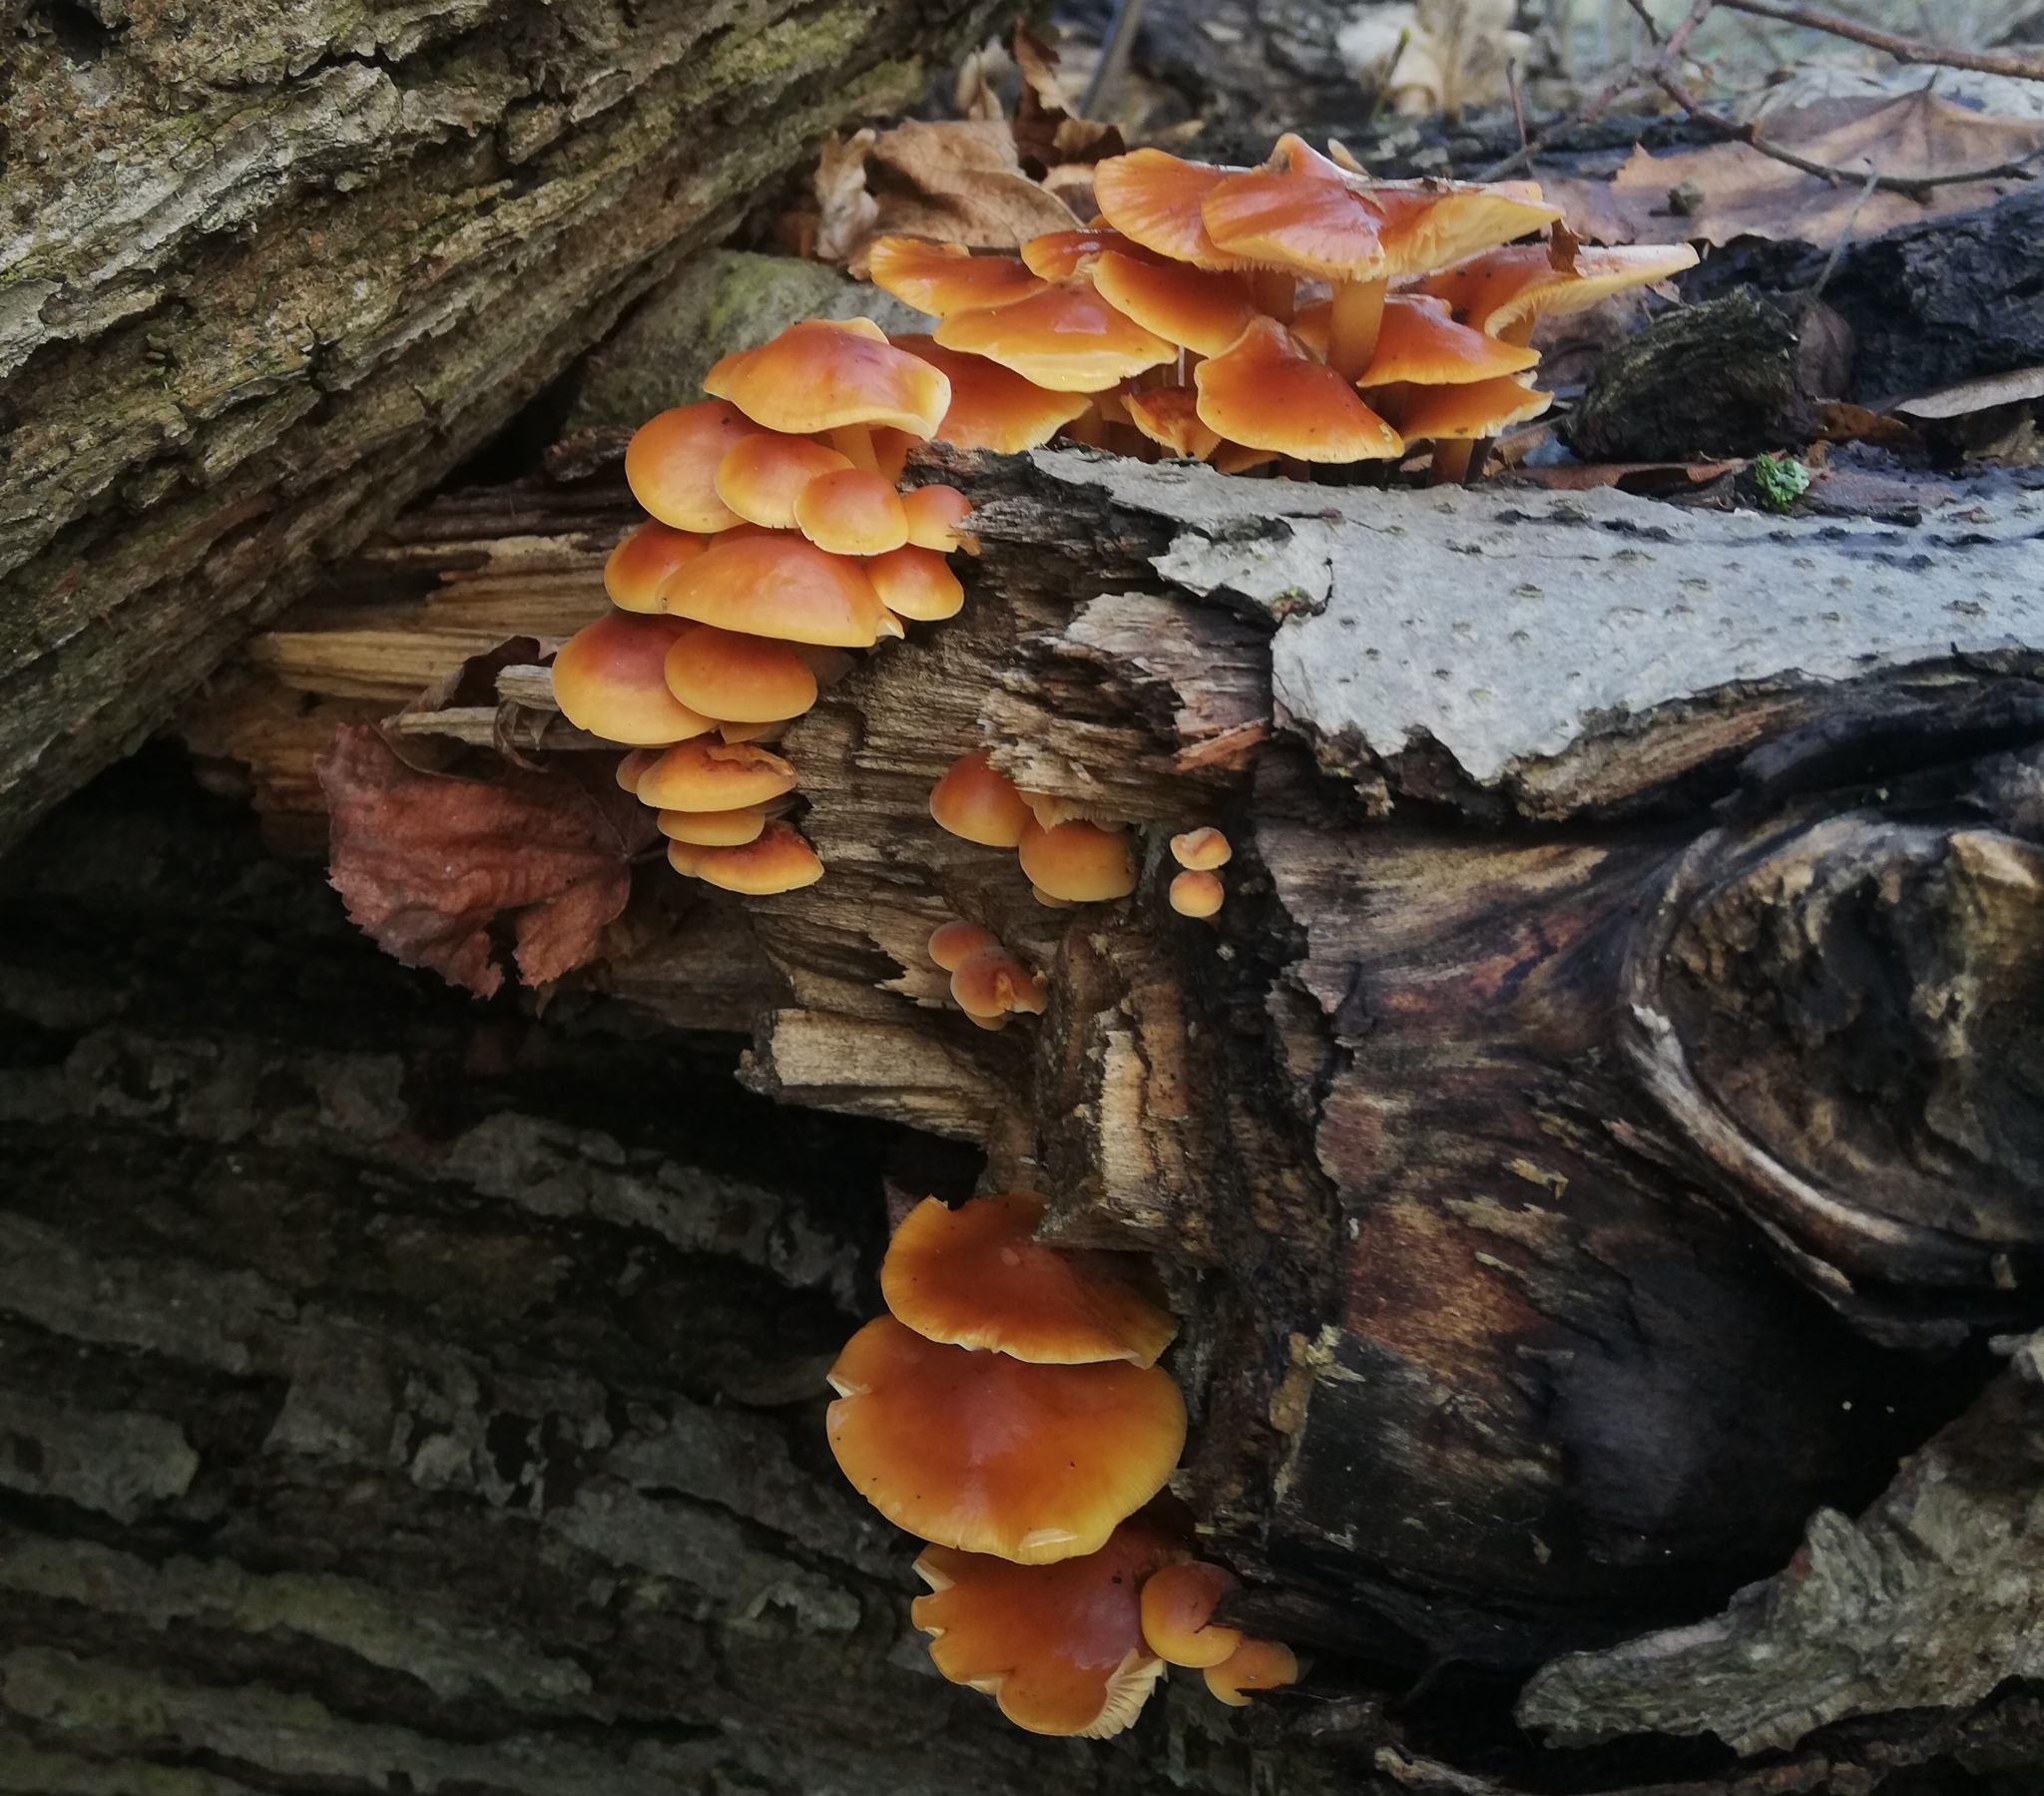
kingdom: Fungi
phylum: Basidiomycota
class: Agaricomycetes
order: Agaricales
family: Physalacriaceae
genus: Flammulina
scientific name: Flammulina
